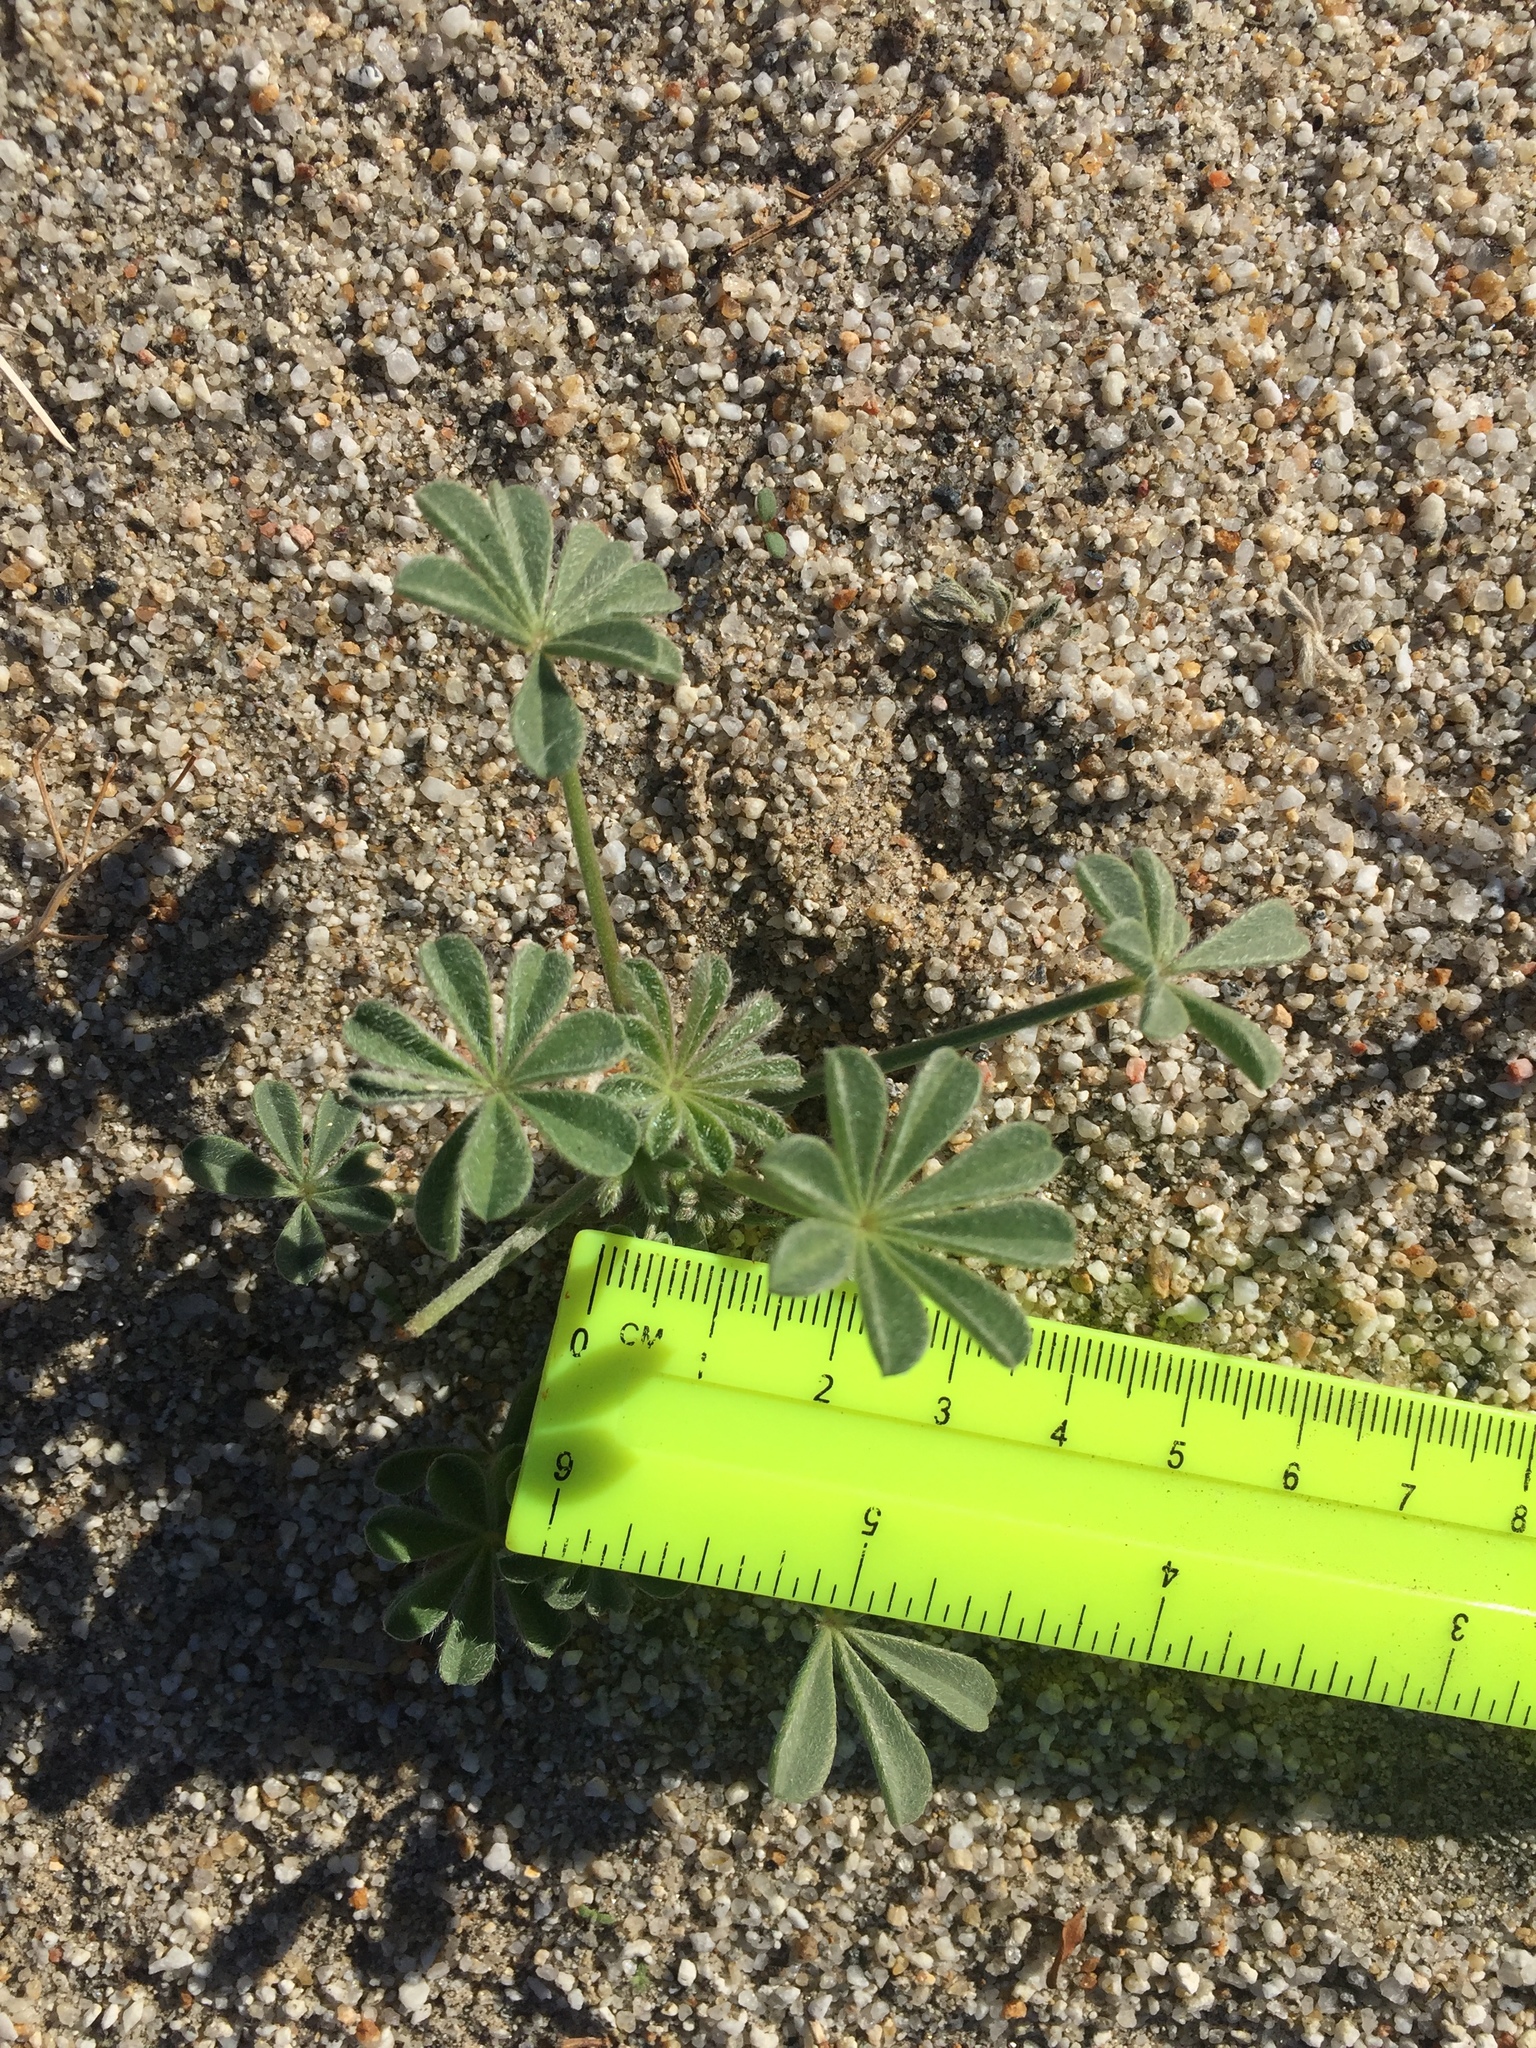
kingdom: Plantae
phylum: Tracheophyta
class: Magnoliopsida
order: Fabales
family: Fabaceae
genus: Lupinus
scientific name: Lupinus arizonicus
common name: Arizona lupine
